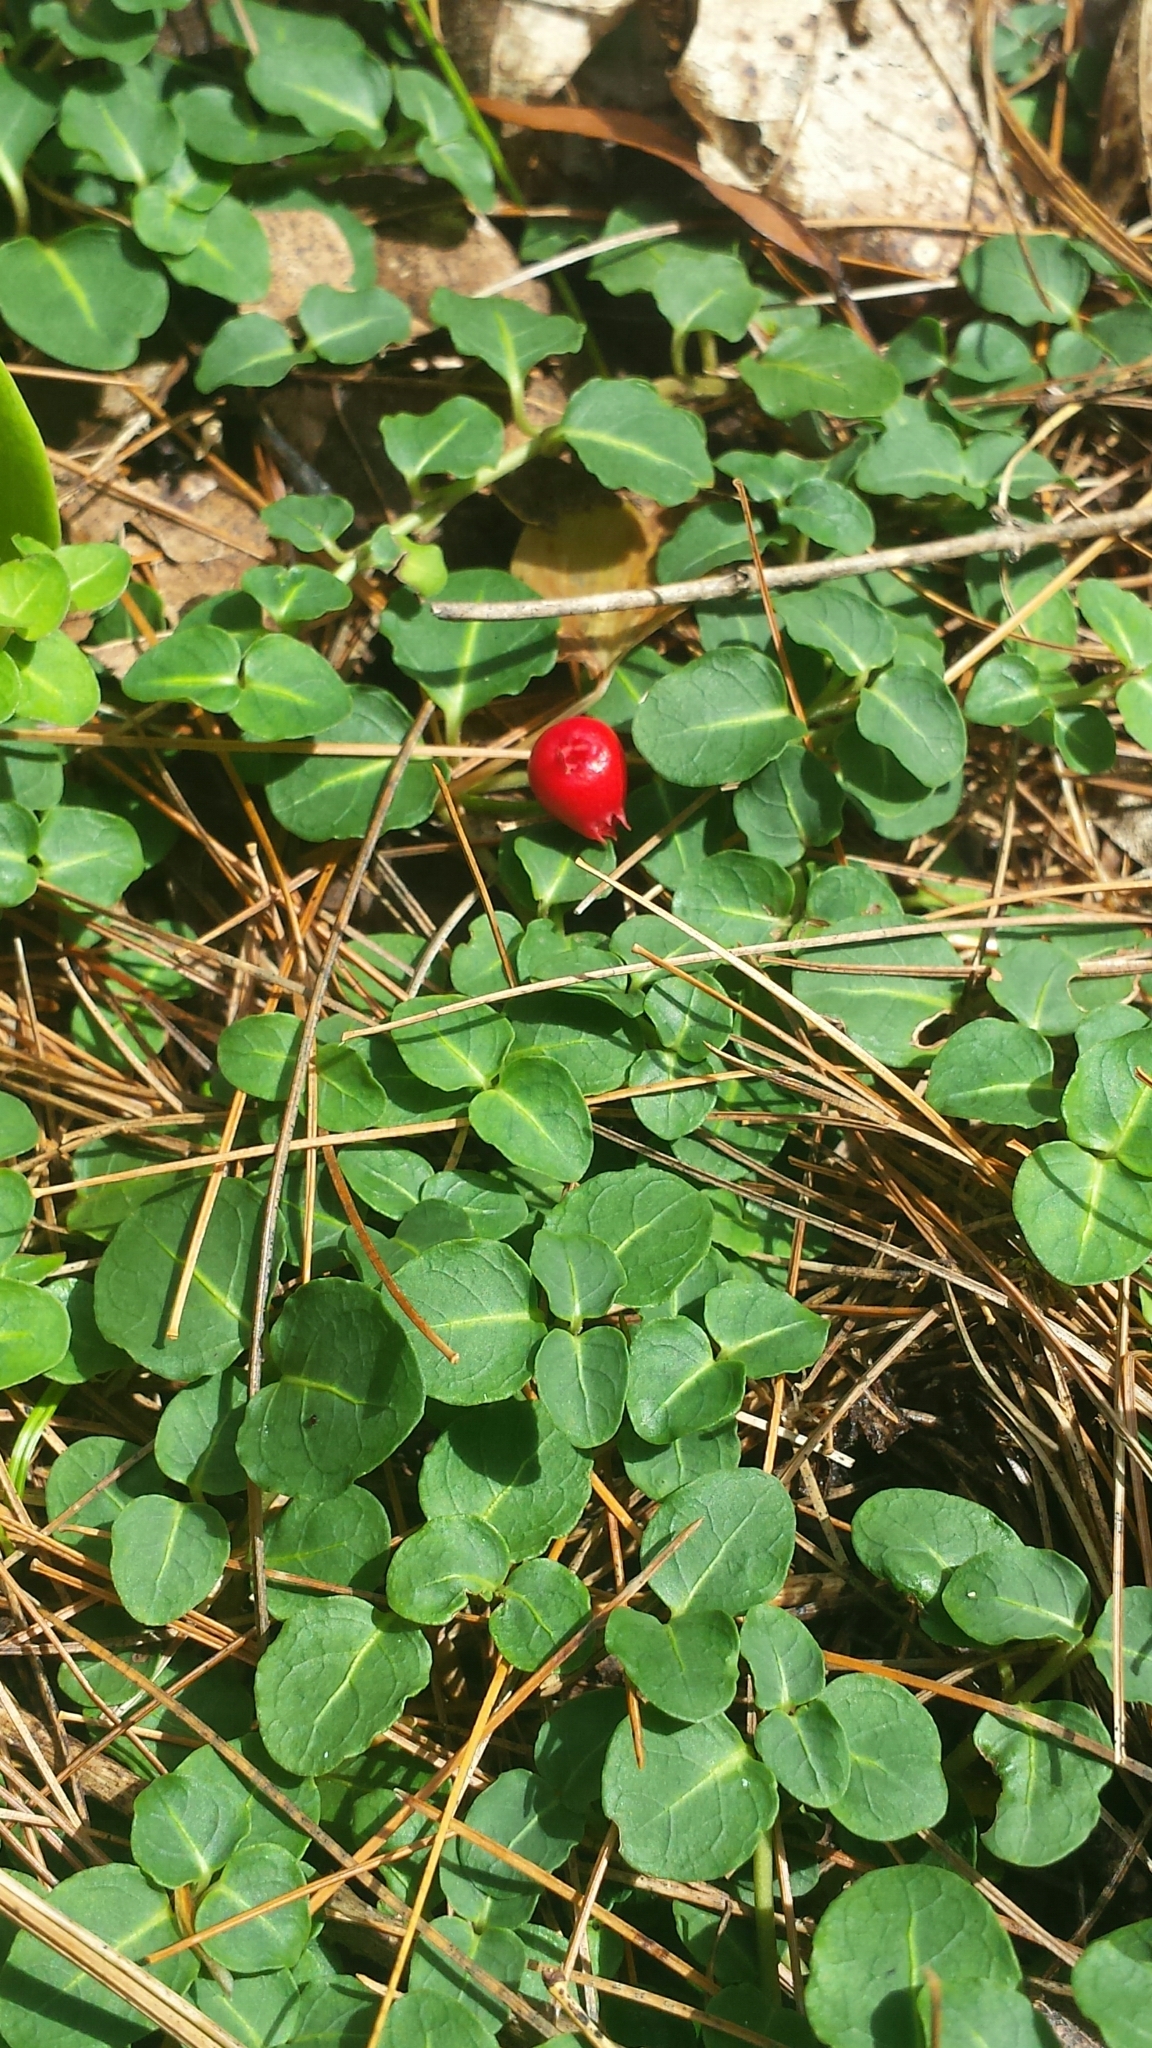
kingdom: Plantae
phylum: Tracheophyta
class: Magnoliopsida
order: Gentianales
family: Rubiaceae
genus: Mitchella
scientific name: Mitchella repens
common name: Partridge-berry
